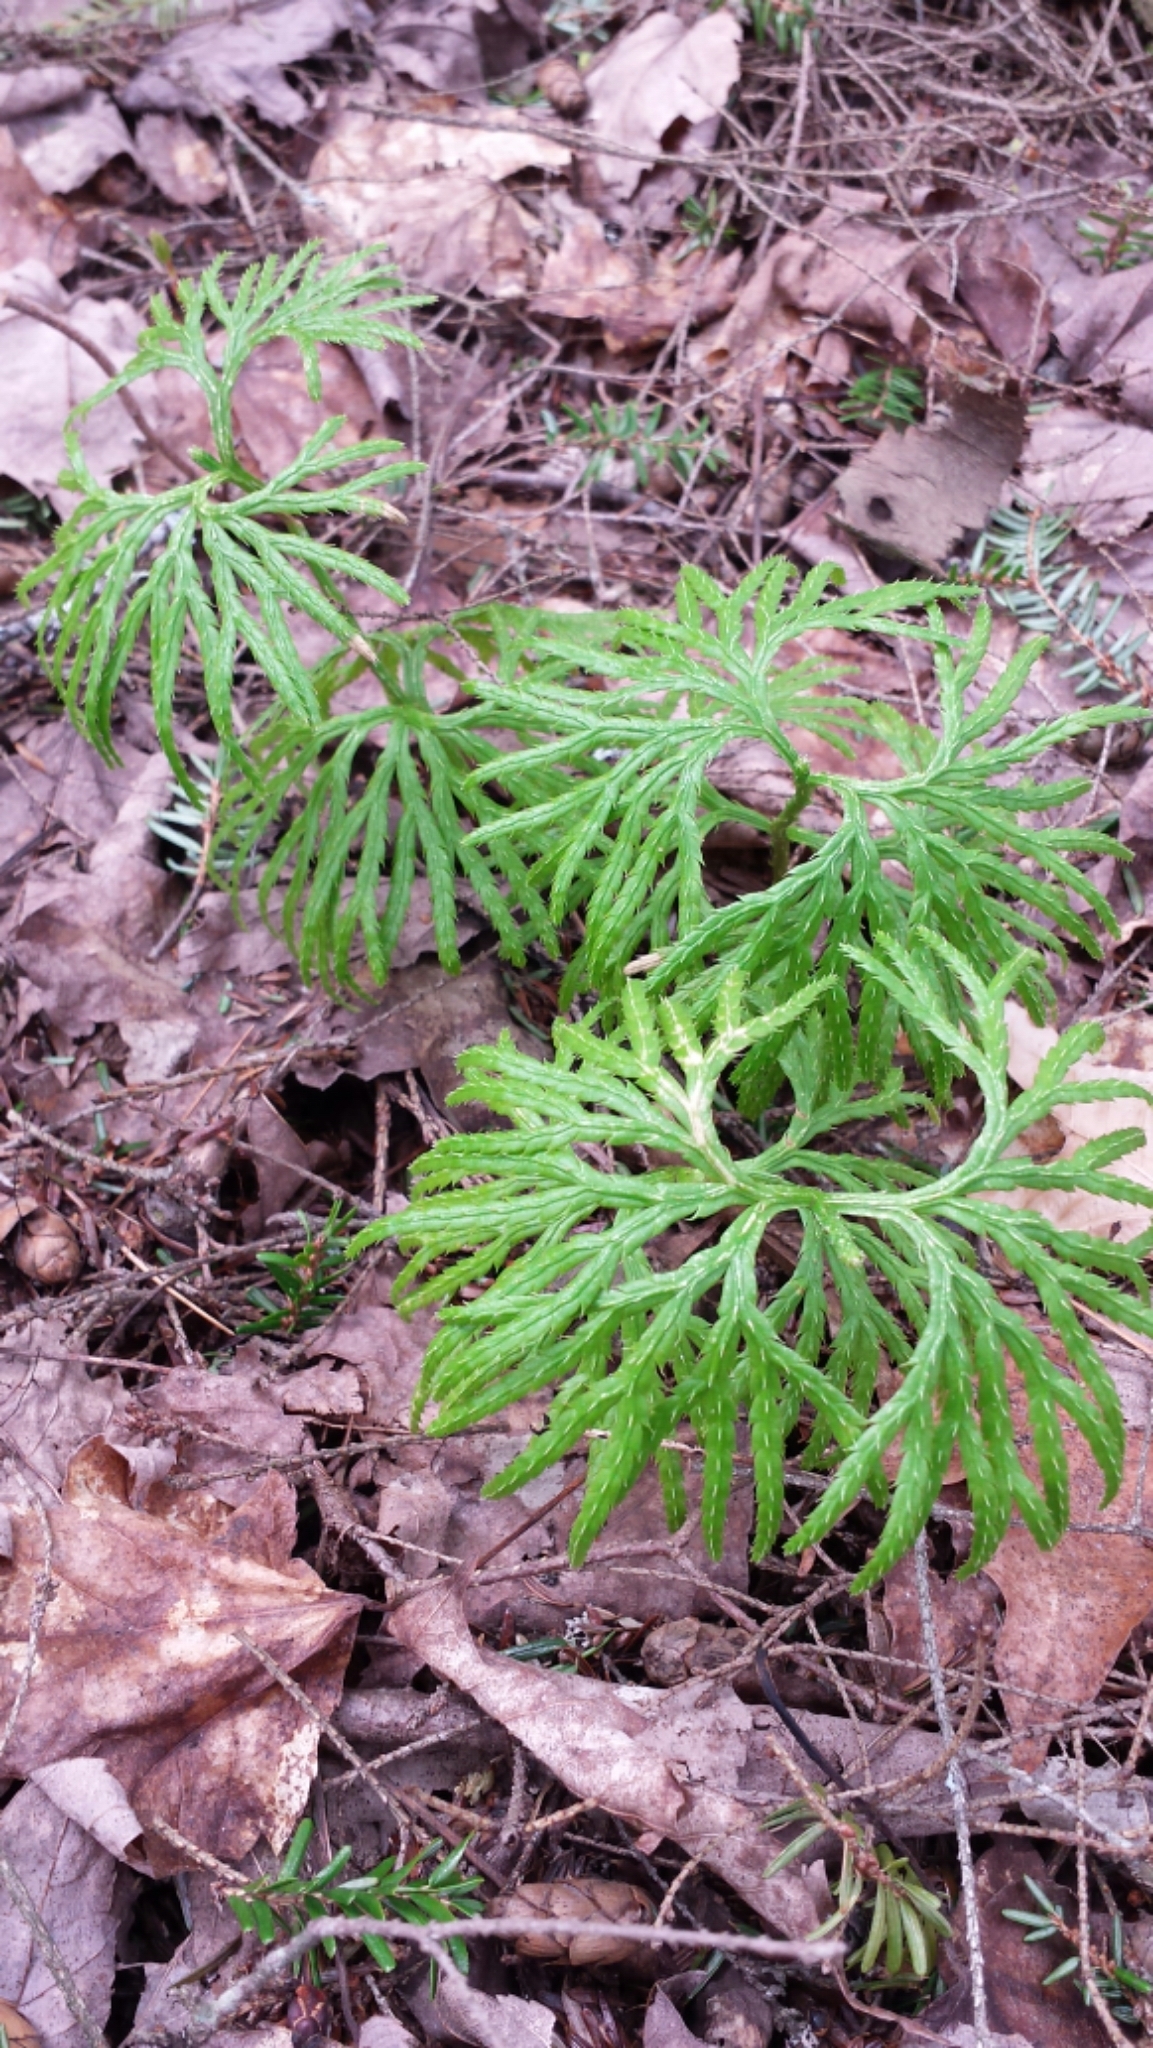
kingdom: Plantae
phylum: Tracheophyta
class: Lycopodiopsida
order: Lycopodiales
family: Lycopodiaceae
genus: Diphasiastrum
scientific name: Diphasiastrum digitatum
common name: Southern running-pine
